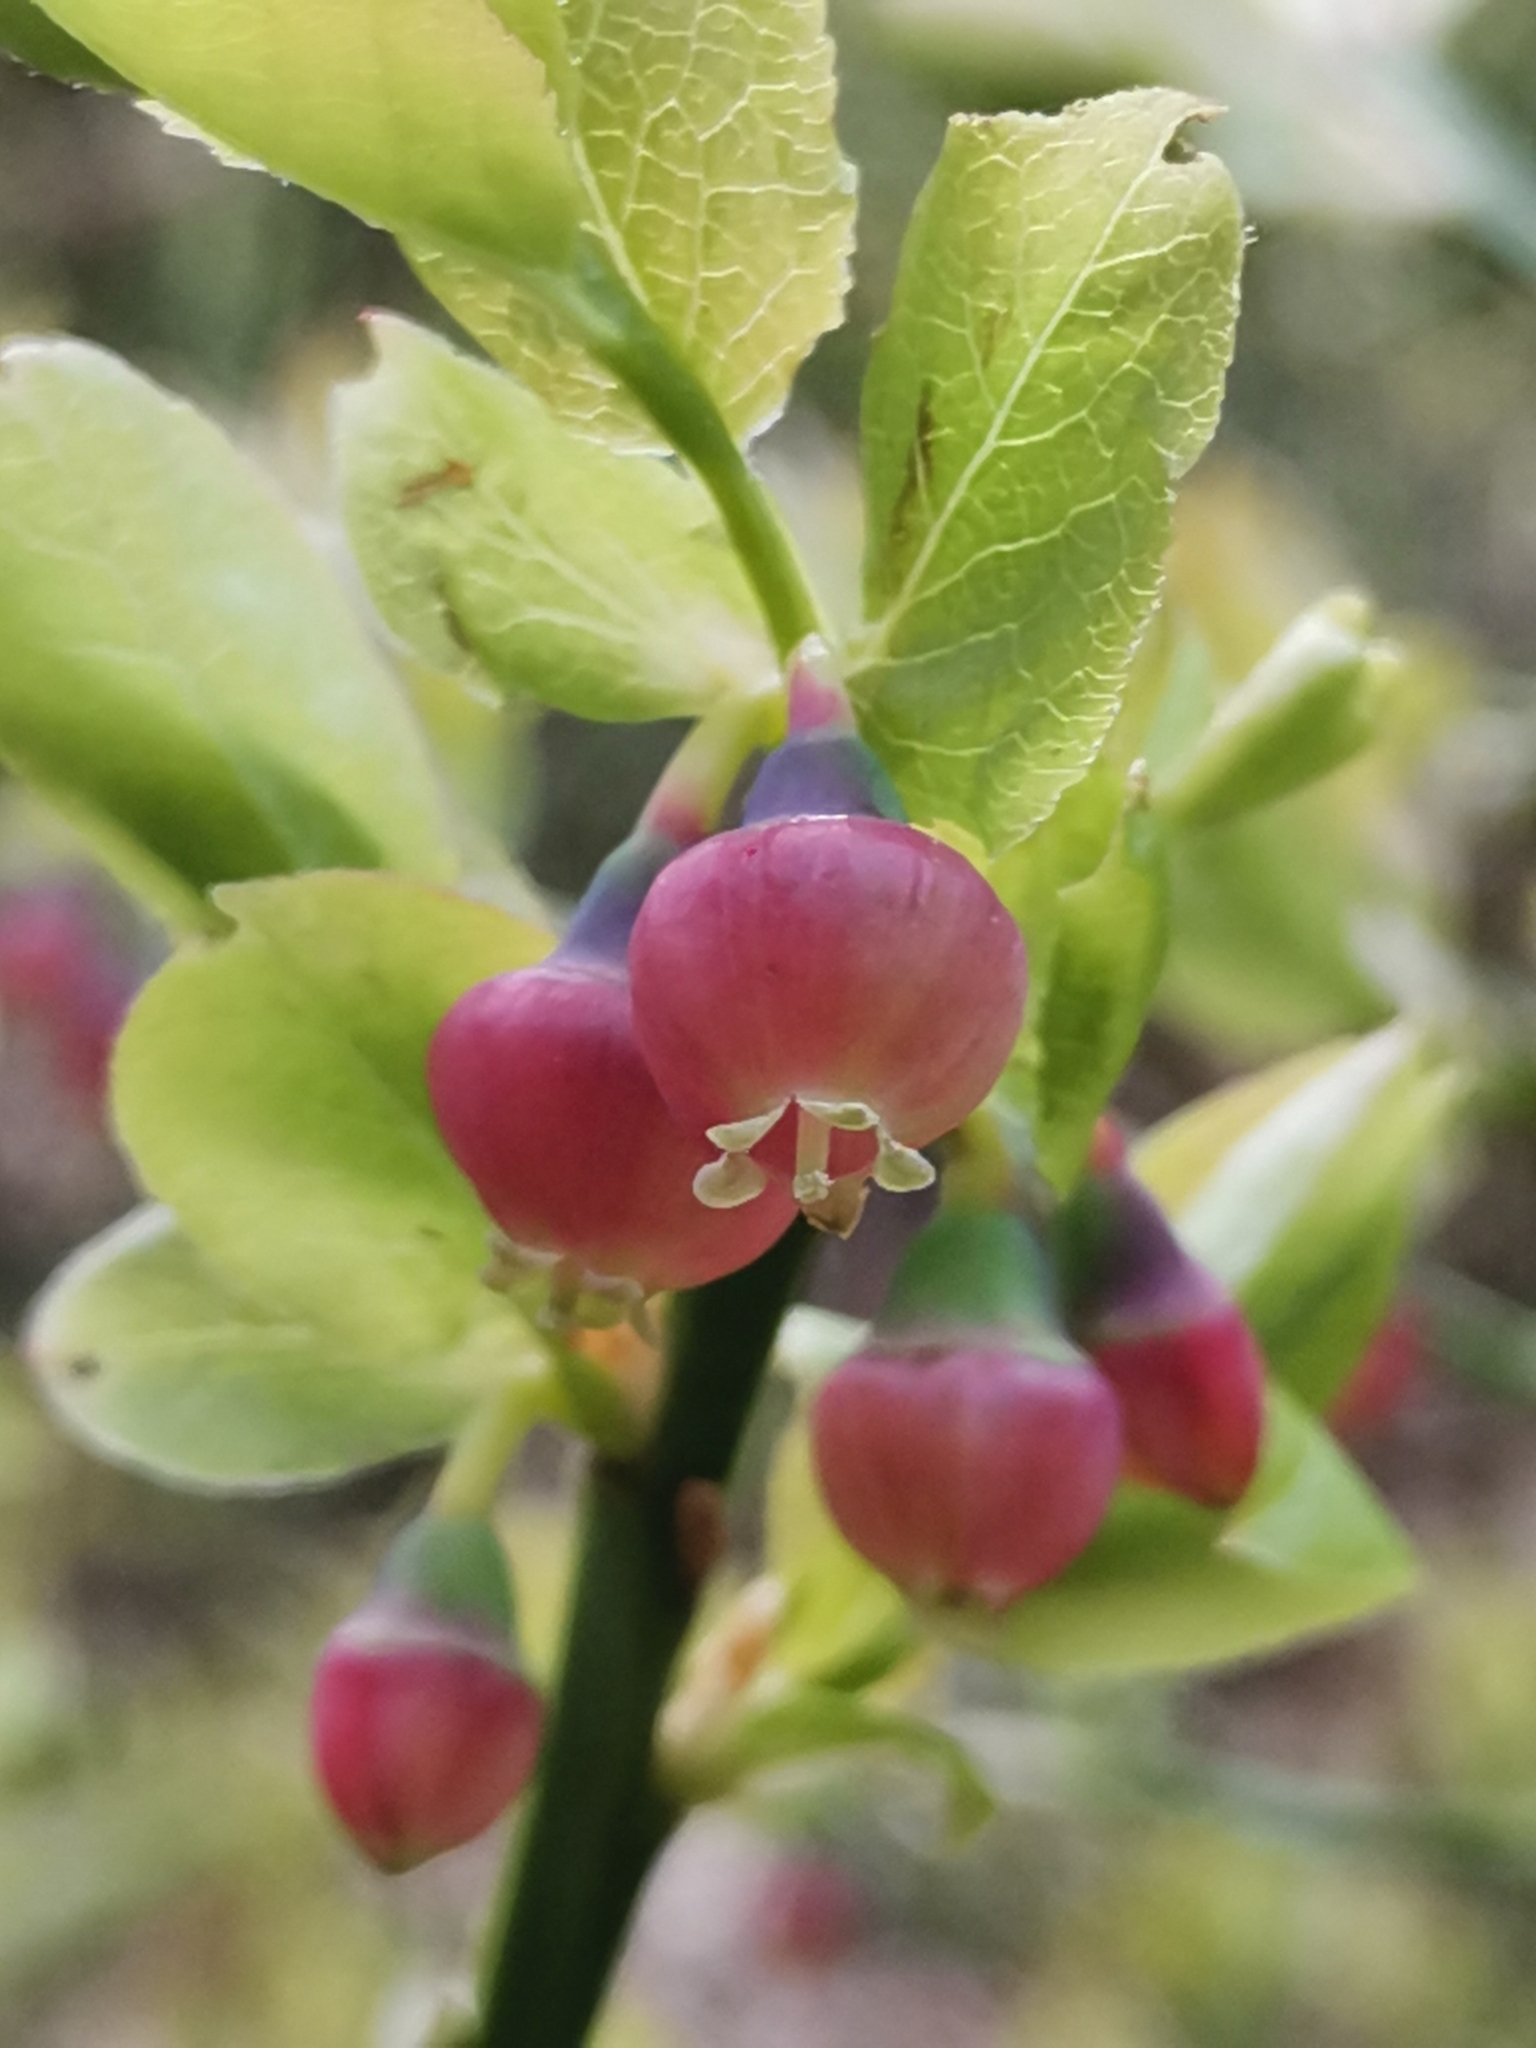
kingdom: Plantae
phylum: Tracheophyta
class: Magnoliopsida
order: Ericales
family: Ericaceae
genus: Vaccinium
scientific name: Vaccinium myrtillus
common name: Bilberry
